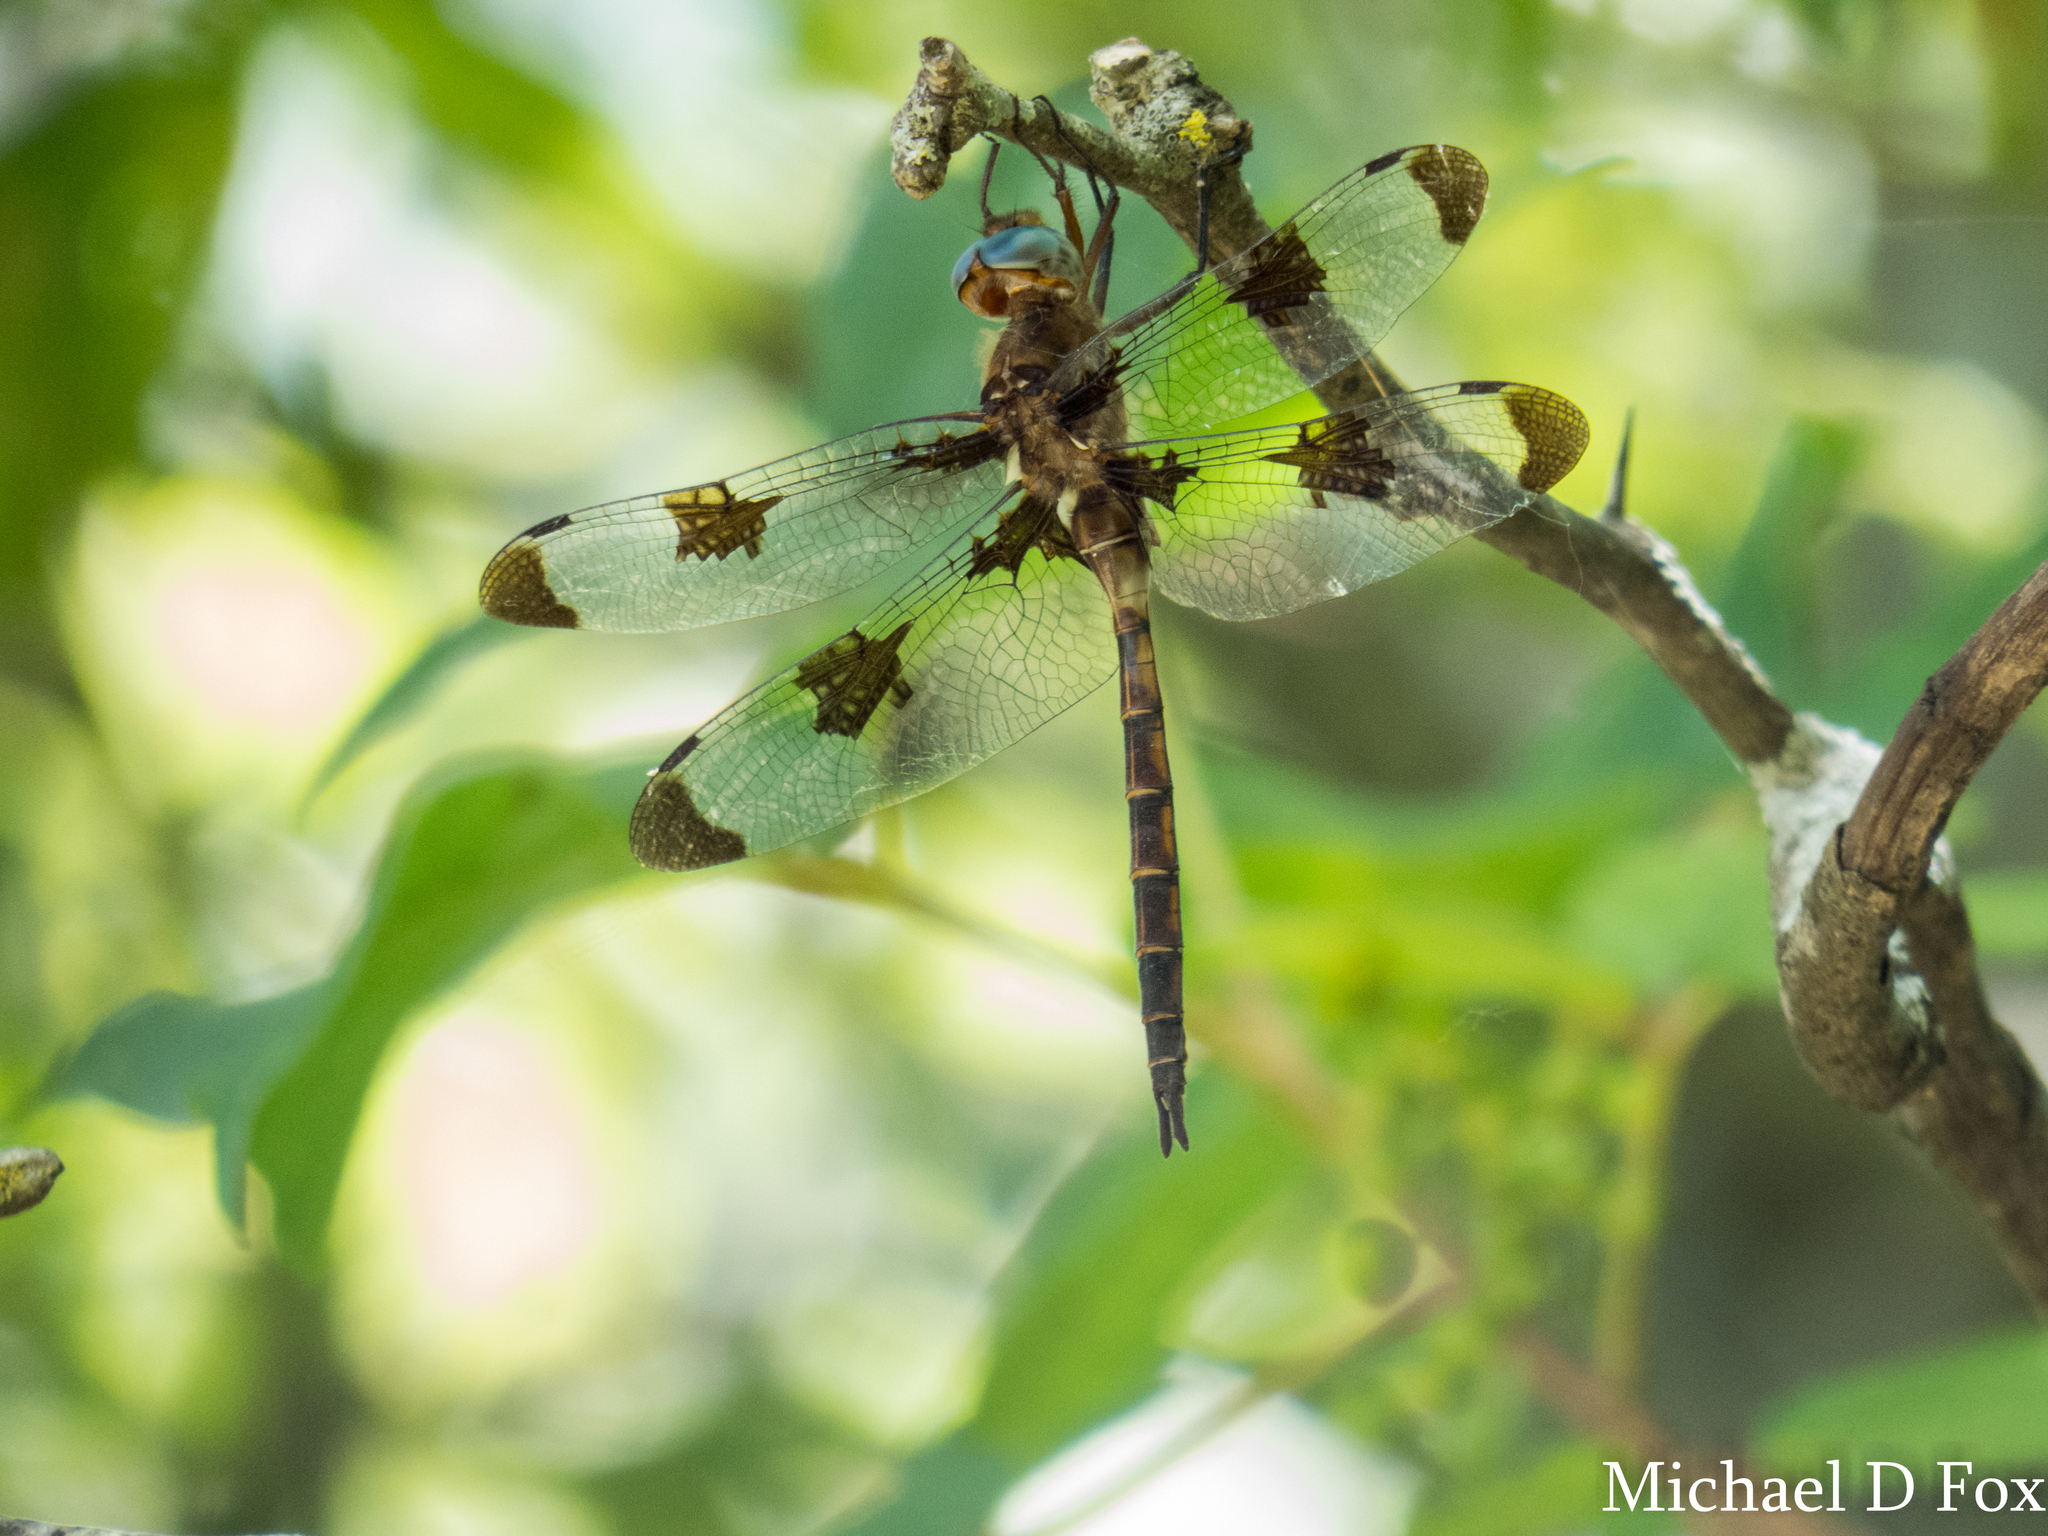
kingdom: Animalia
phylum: Arthropoda
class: Insecta
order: Odonata
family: Corduliidae
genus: Epitheca
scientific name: Epitheca princeps
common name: Prince baskettail
